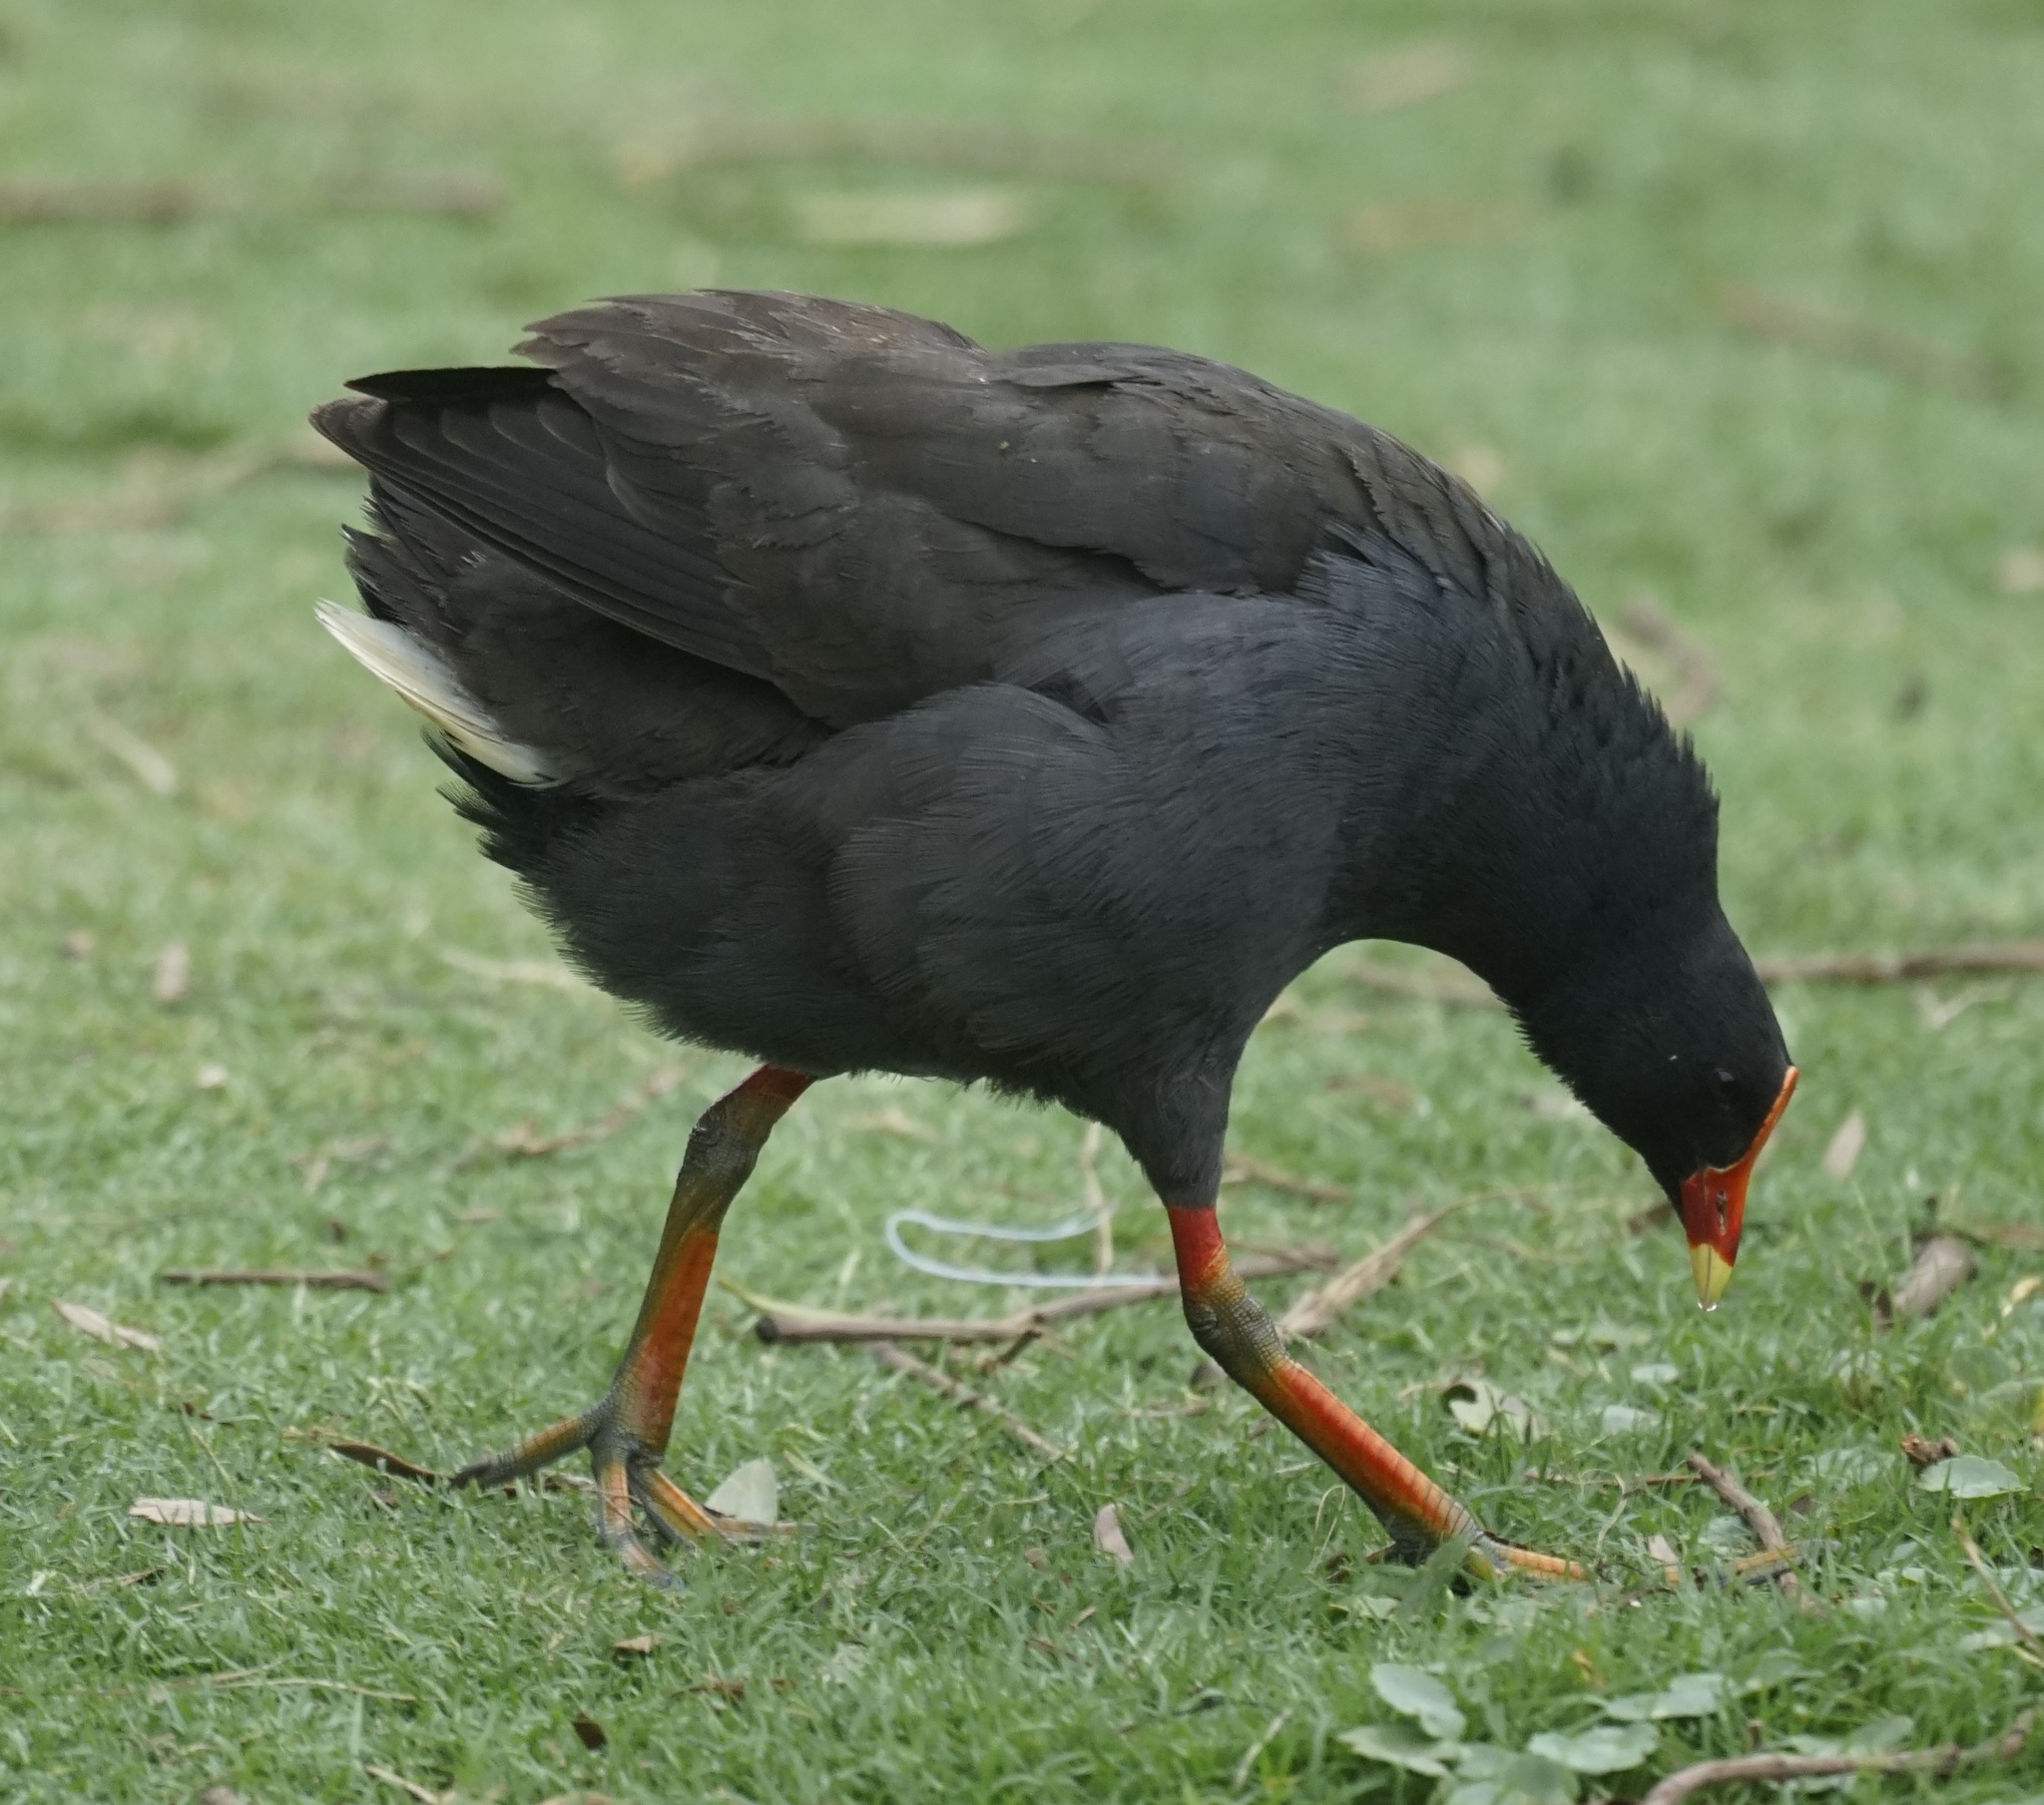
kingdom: Animalia
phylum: Chordata
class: Aves
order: Gruiformes
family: Rallidae
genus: Gallinula
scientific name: Gallinula tenebrosa
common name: Dusky moorhen
